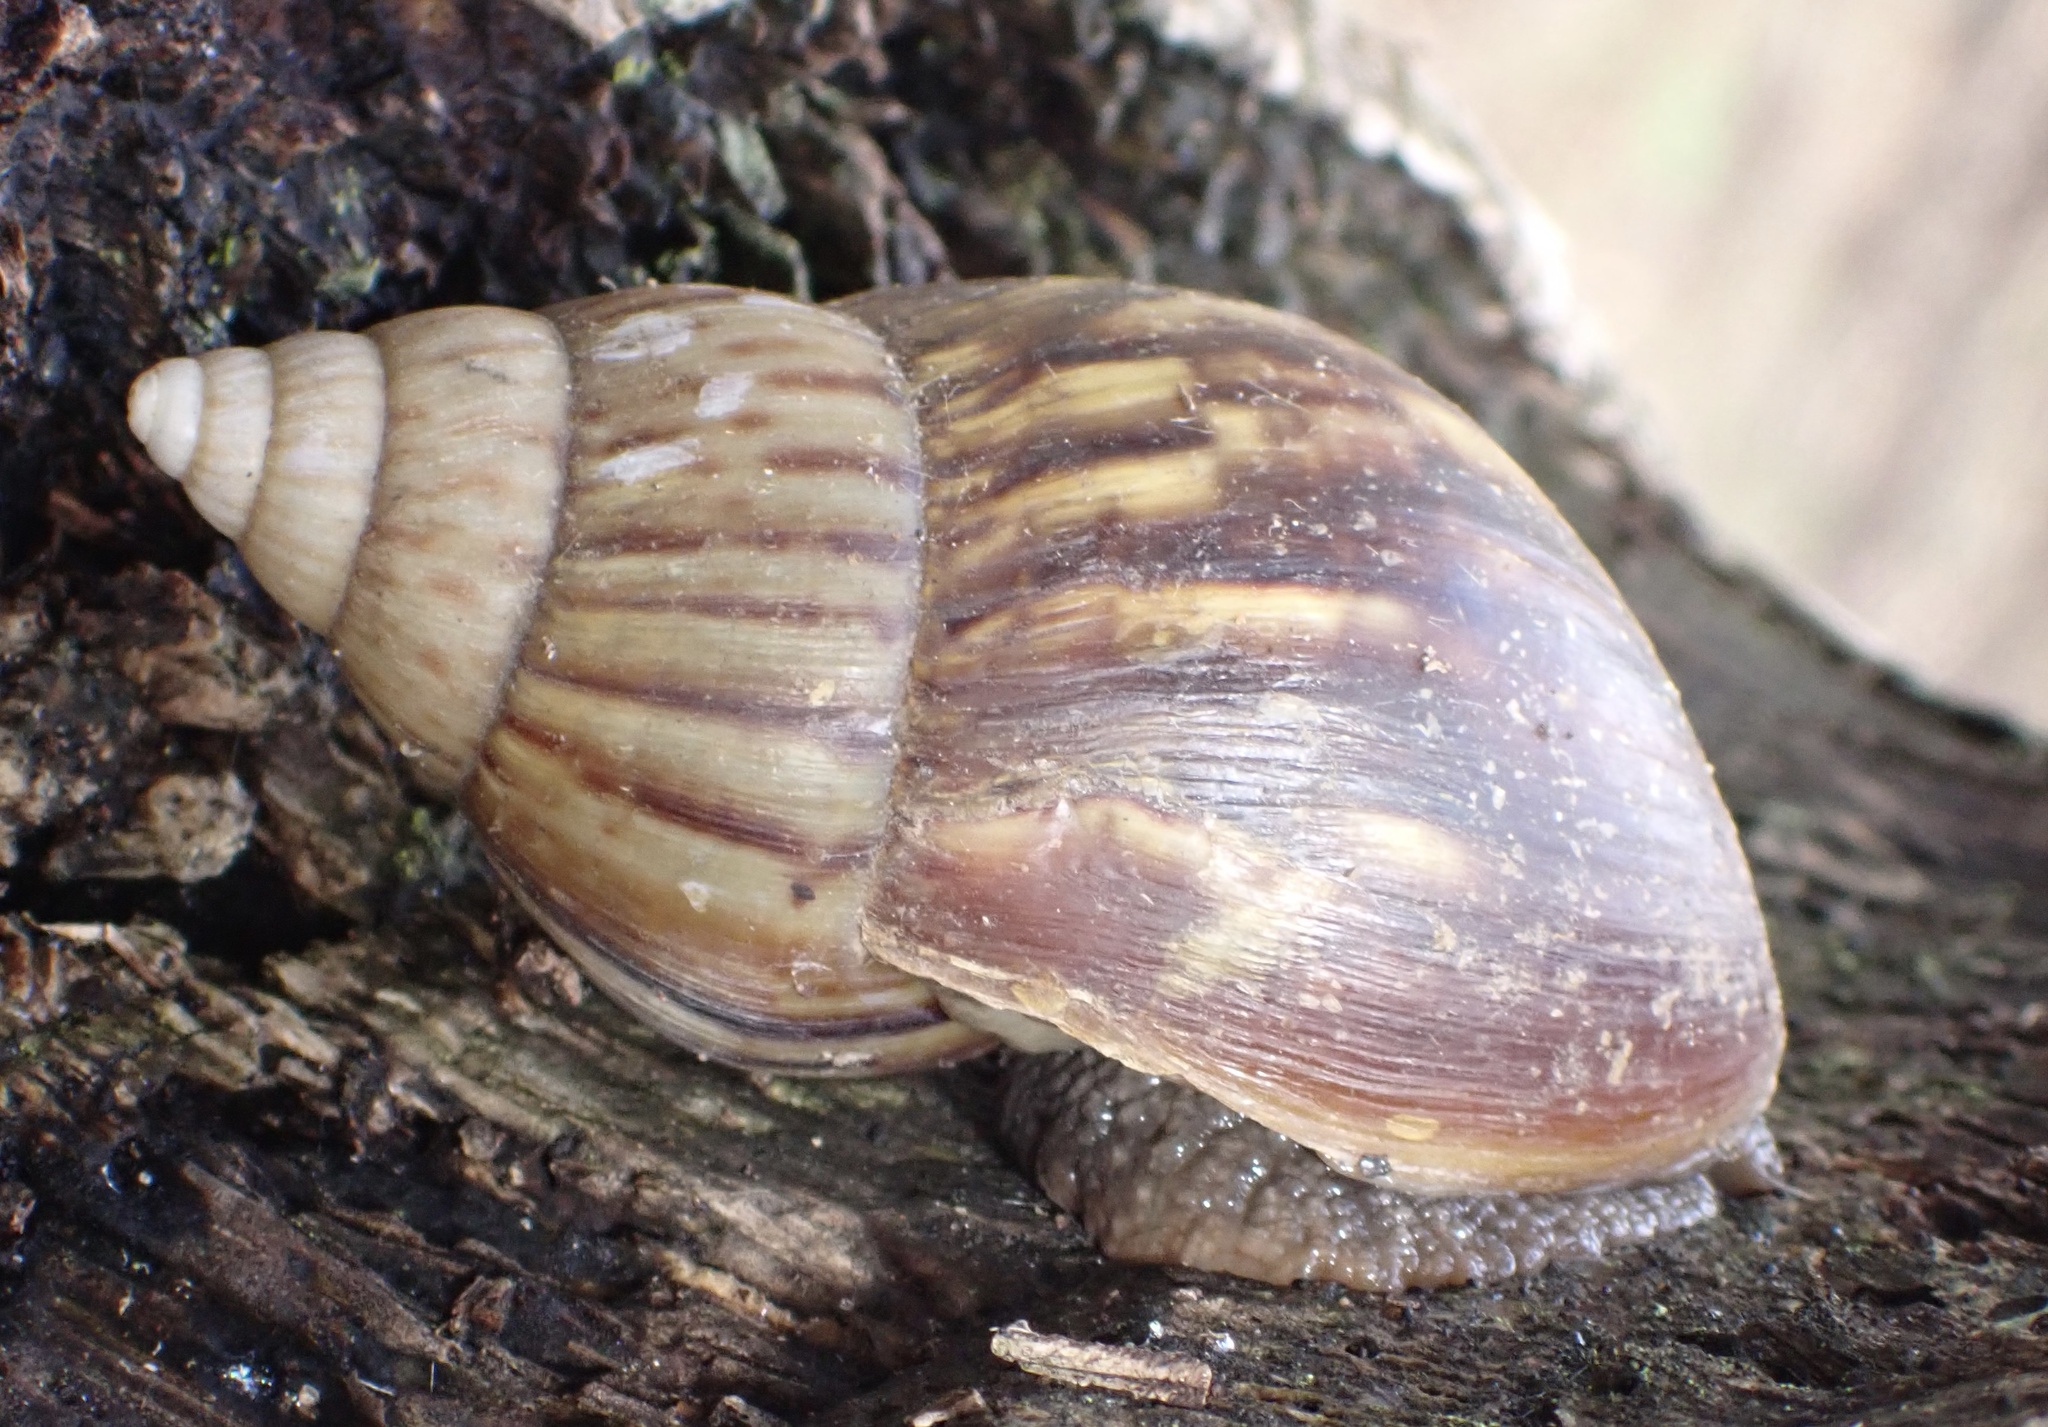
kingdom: Animalia
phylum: Mollusca
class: Gastropoda
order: Stylommatophora
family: Achatinidae
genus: Lissachatina
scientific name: Lissachatina fulica
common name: Giant african snail
